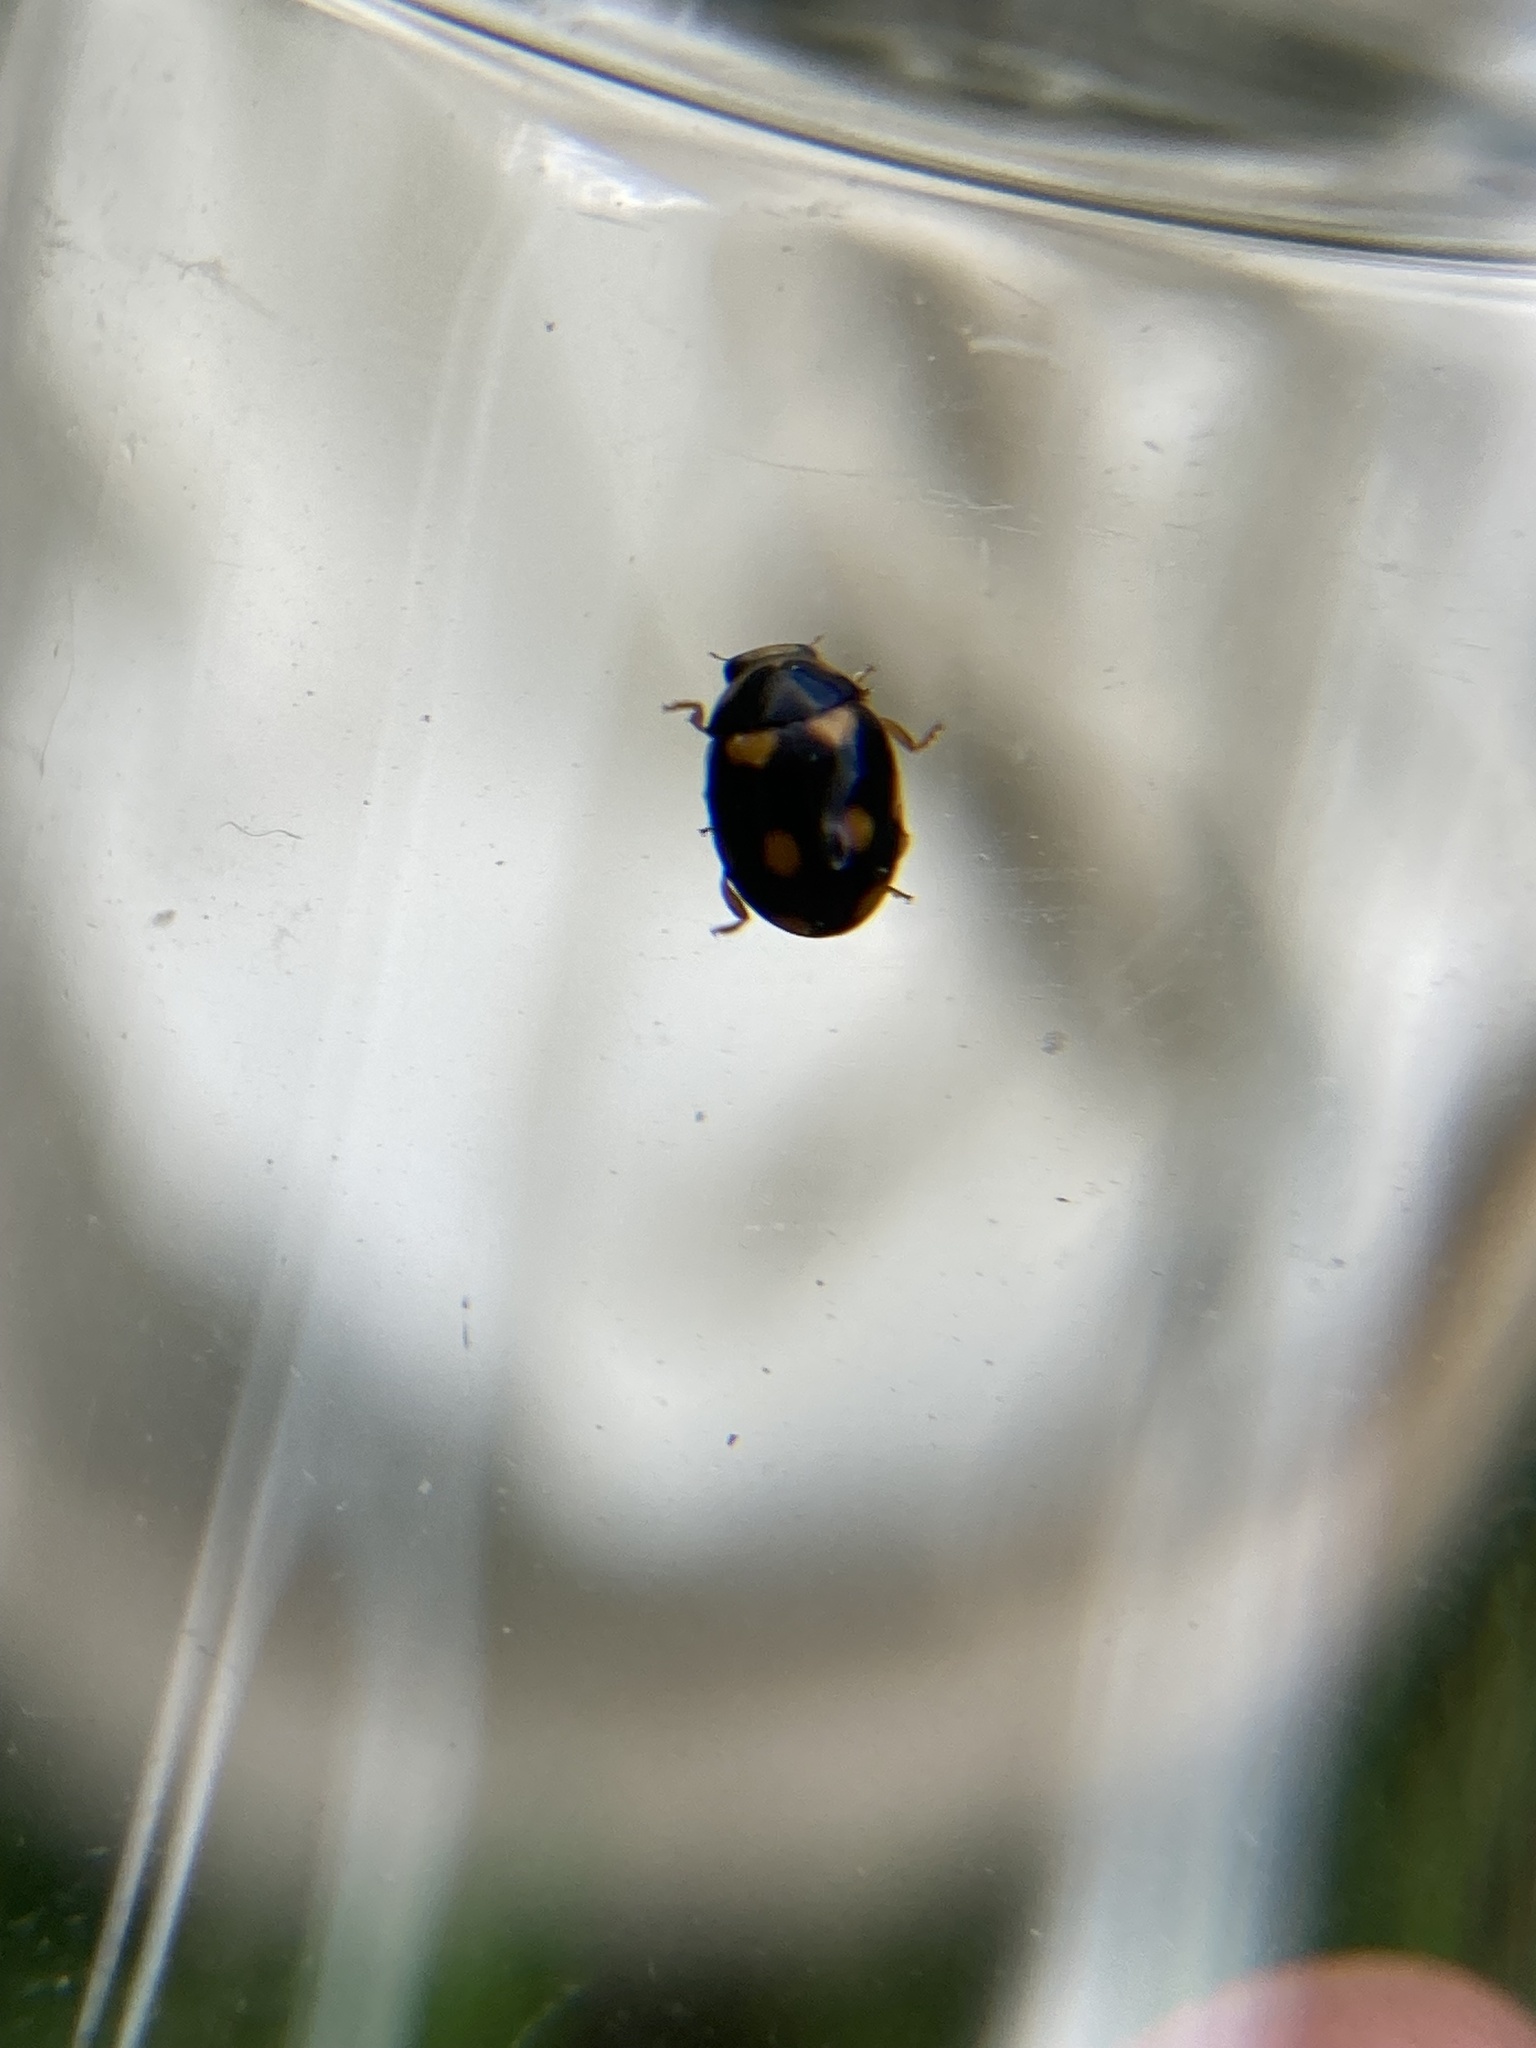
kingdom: Animalia
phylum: Arthropoda
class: Insecta
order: Coleoptera
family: Coccinellidae
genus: Brachiacantha
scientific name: Brachiacantha ursina
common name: Ursine spurleg lady beetle
